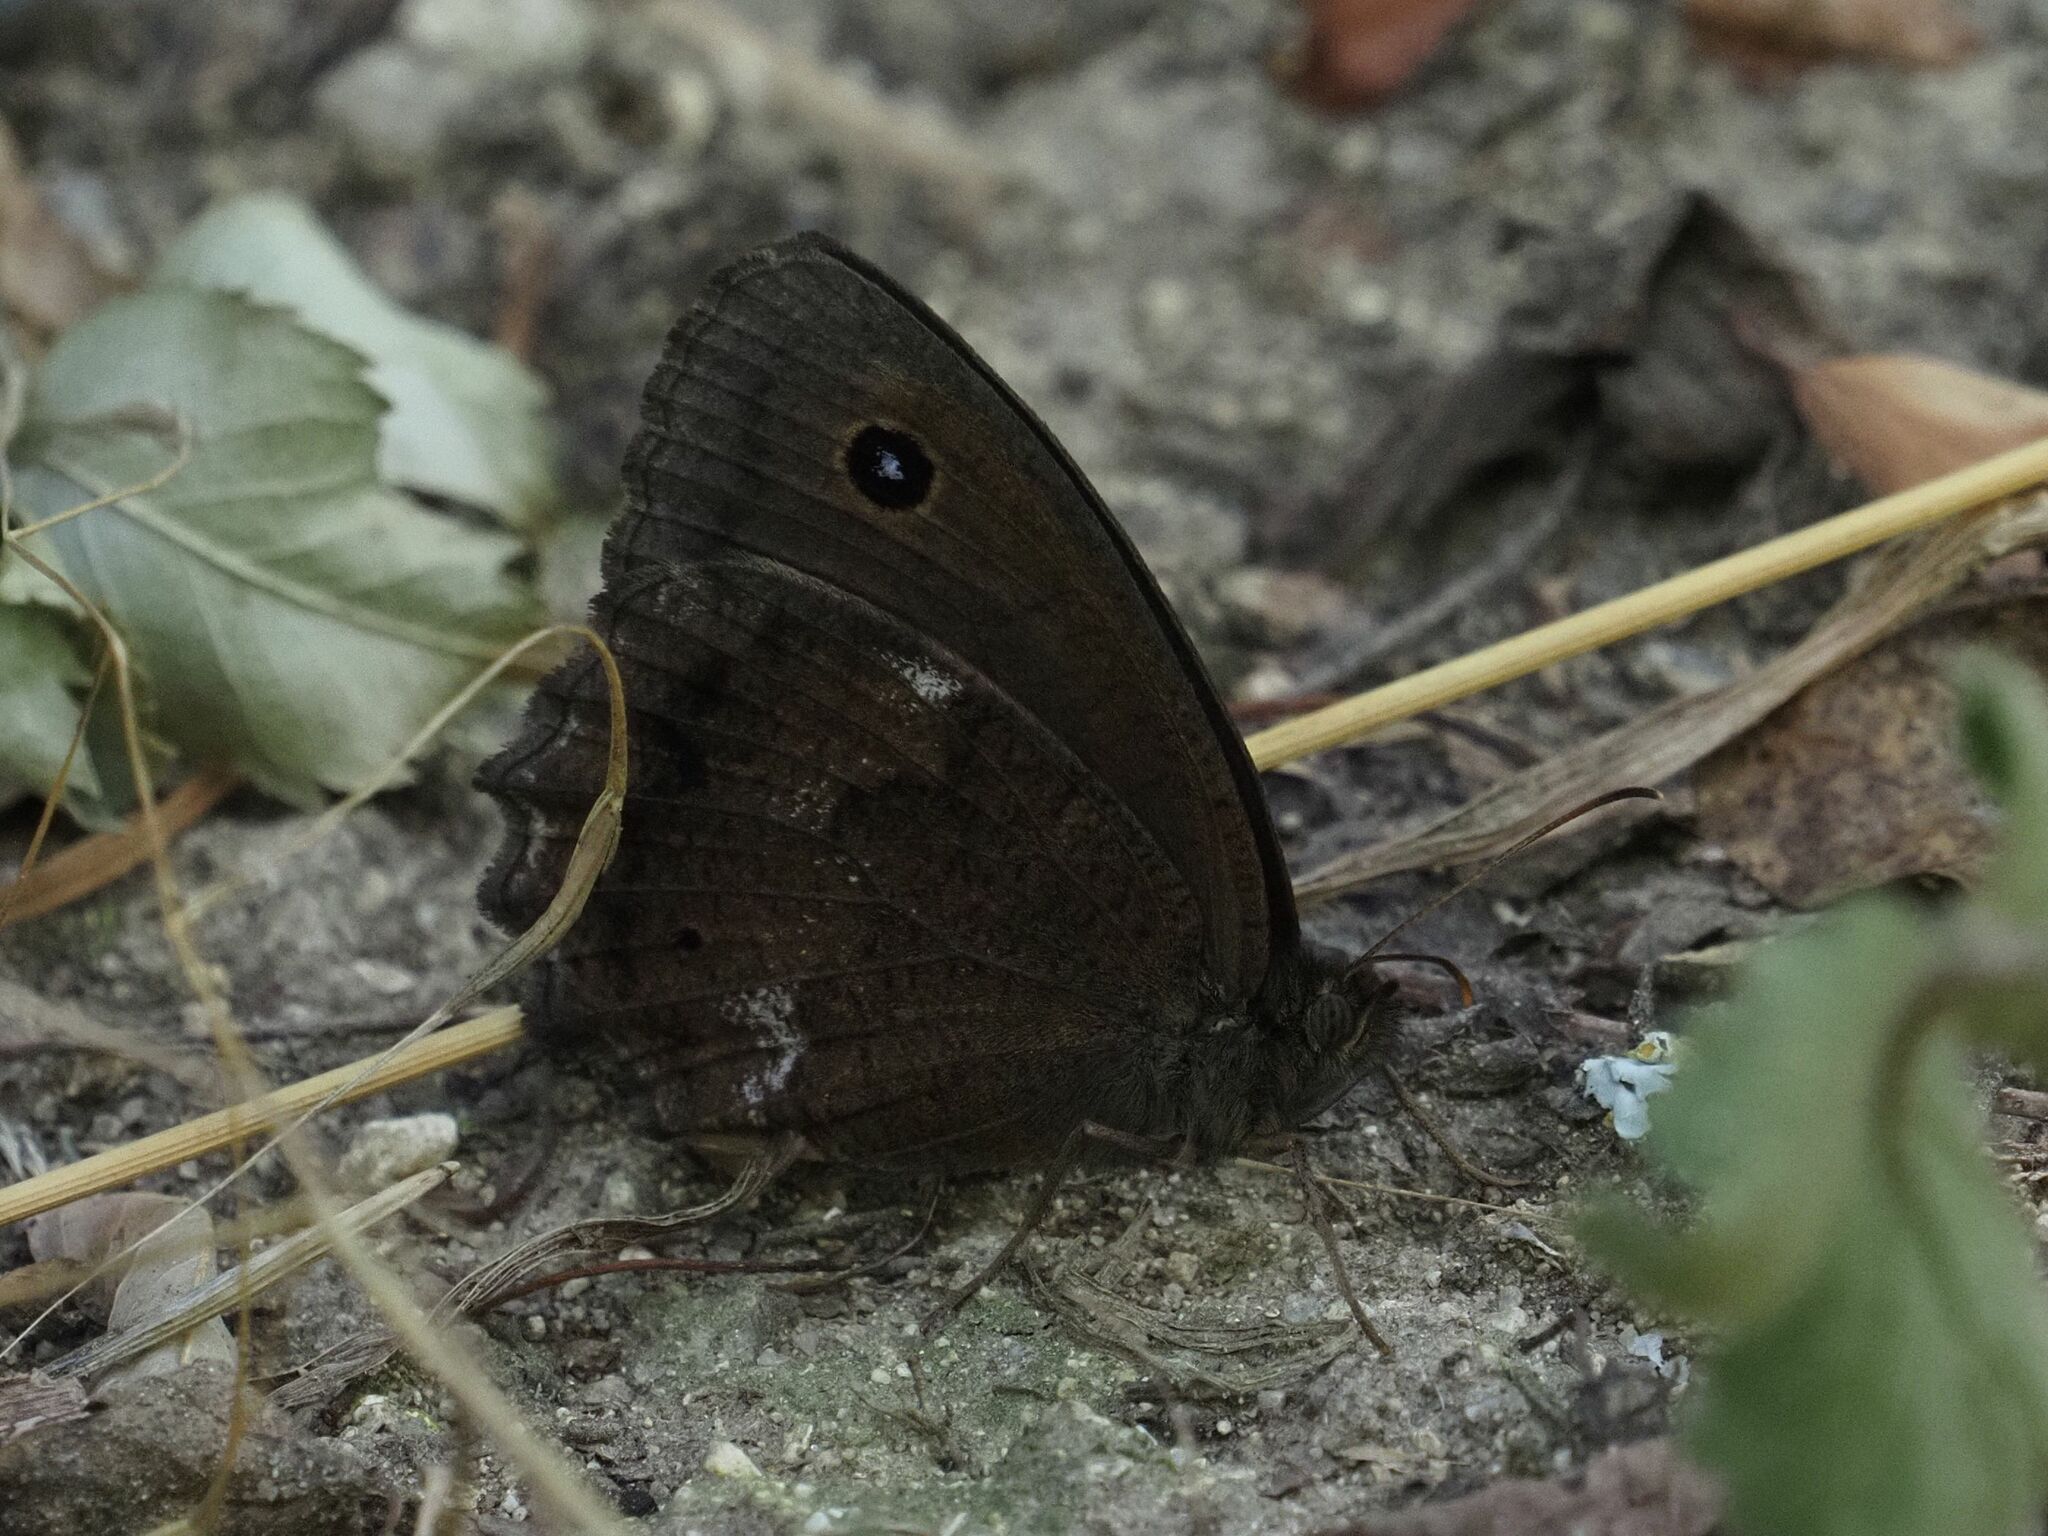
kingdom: Animalia
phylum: Arthropoda
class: Insecta
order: Lepidoptera
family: Nymphalidae
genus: Minois
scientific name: Minois dryas
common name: Dryad
